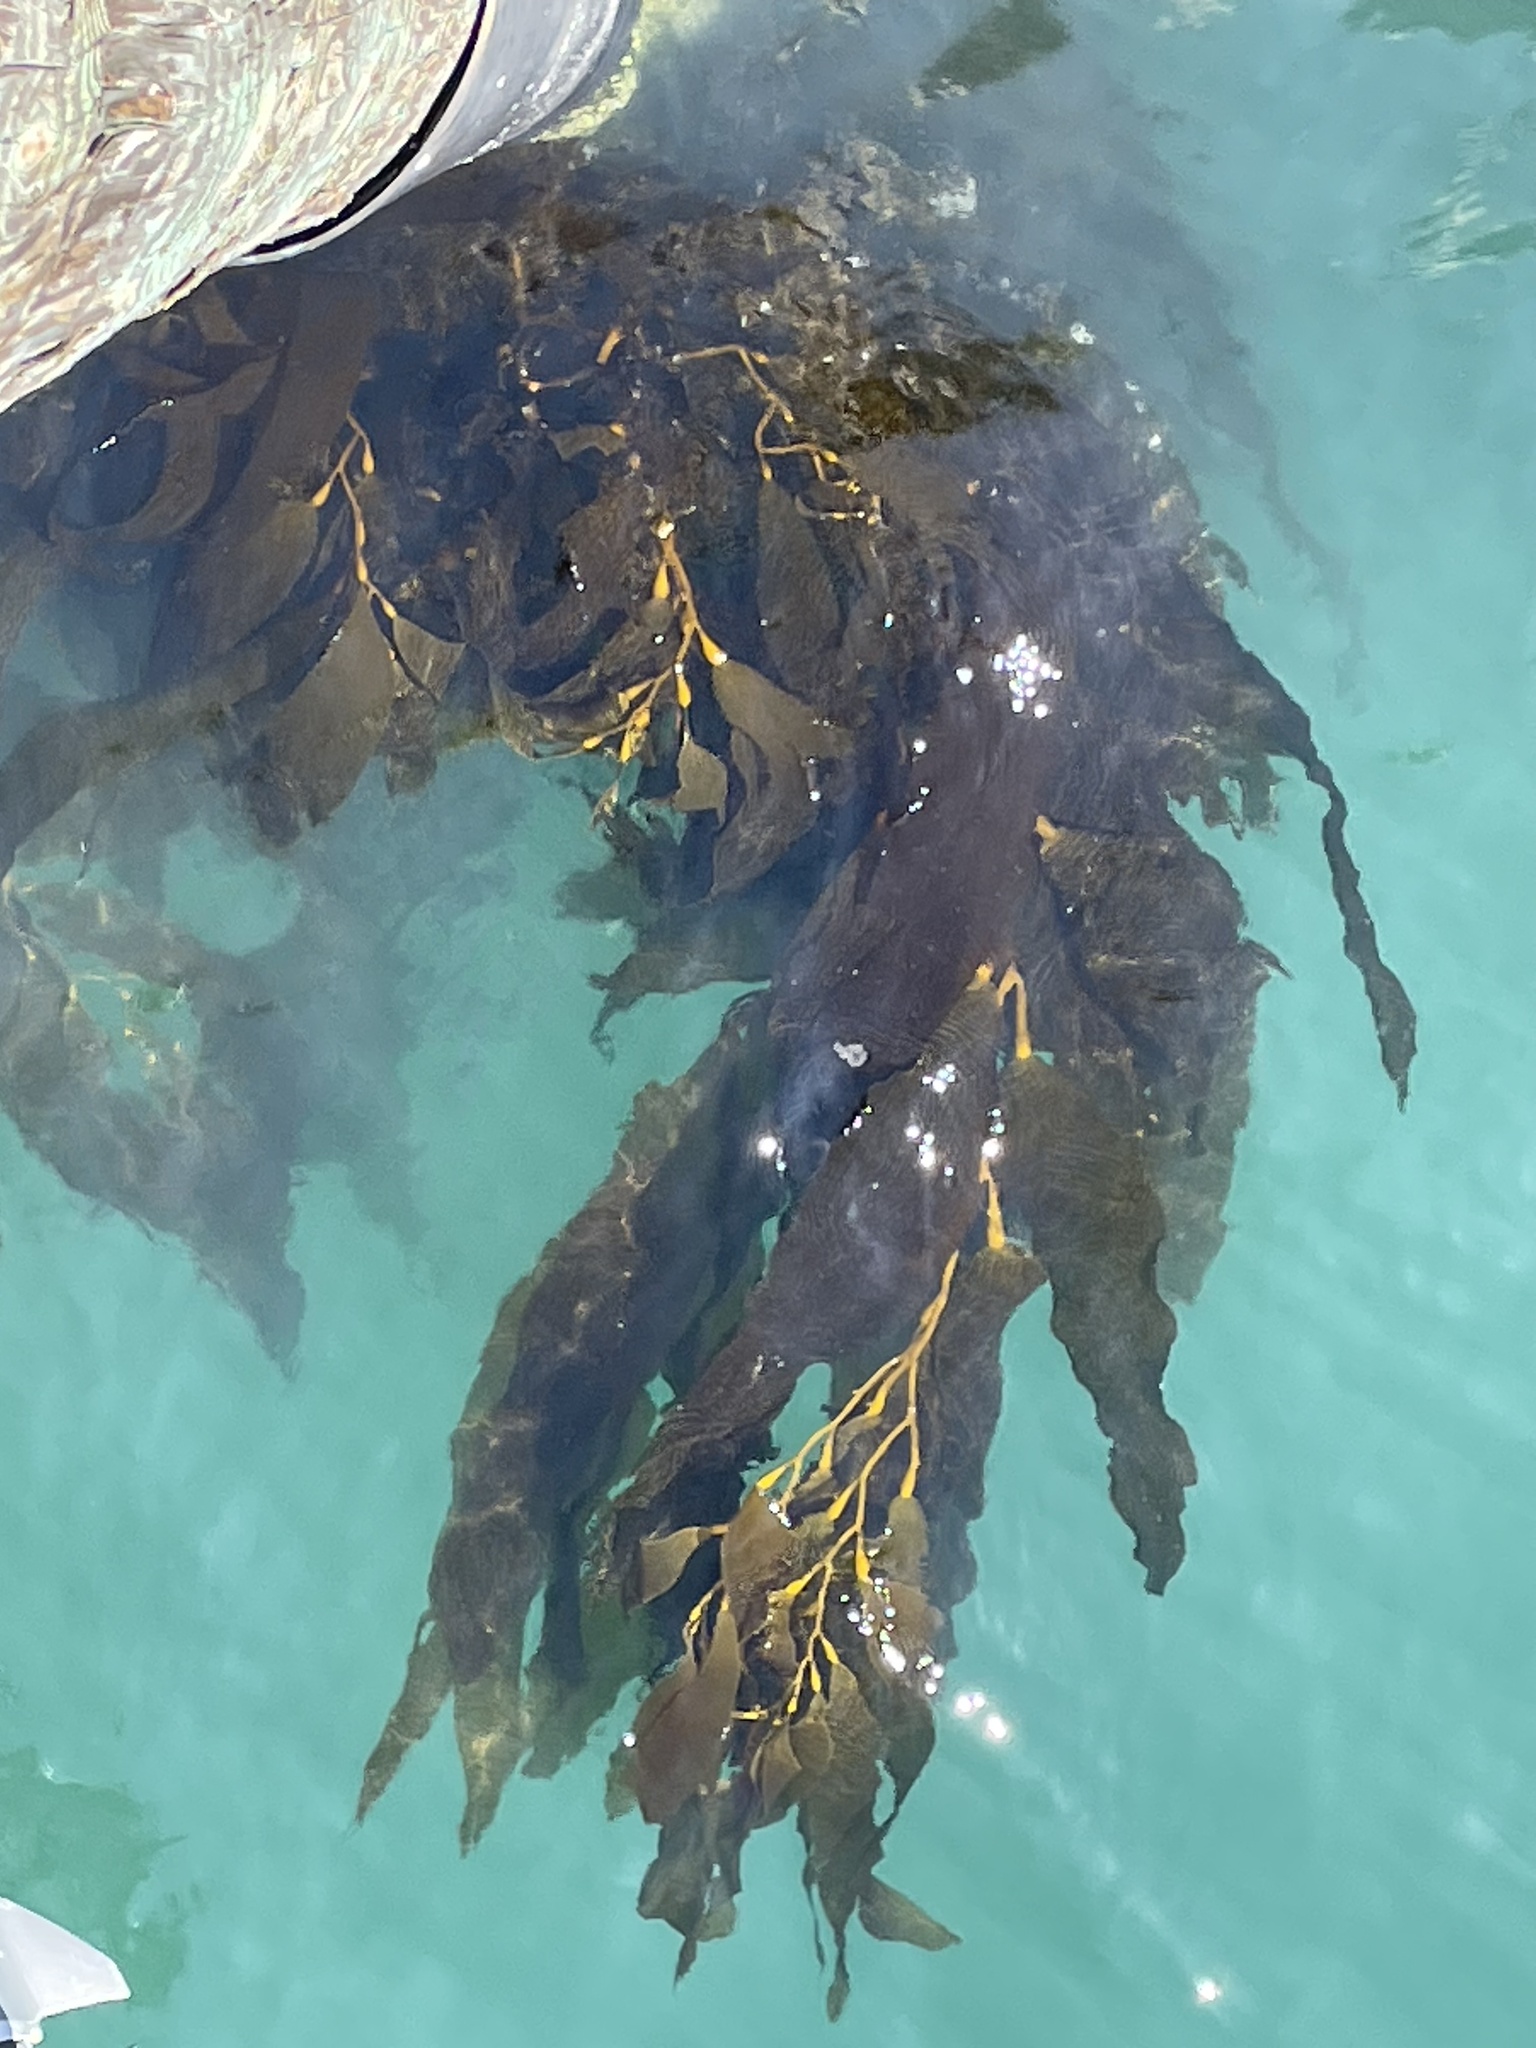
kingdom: Chromista
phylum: Ochrophyta
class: Phaeophyceae
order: Laminariales
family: Laminariaceae
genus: Macrocystis
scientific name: Macrocystis pyrifera
